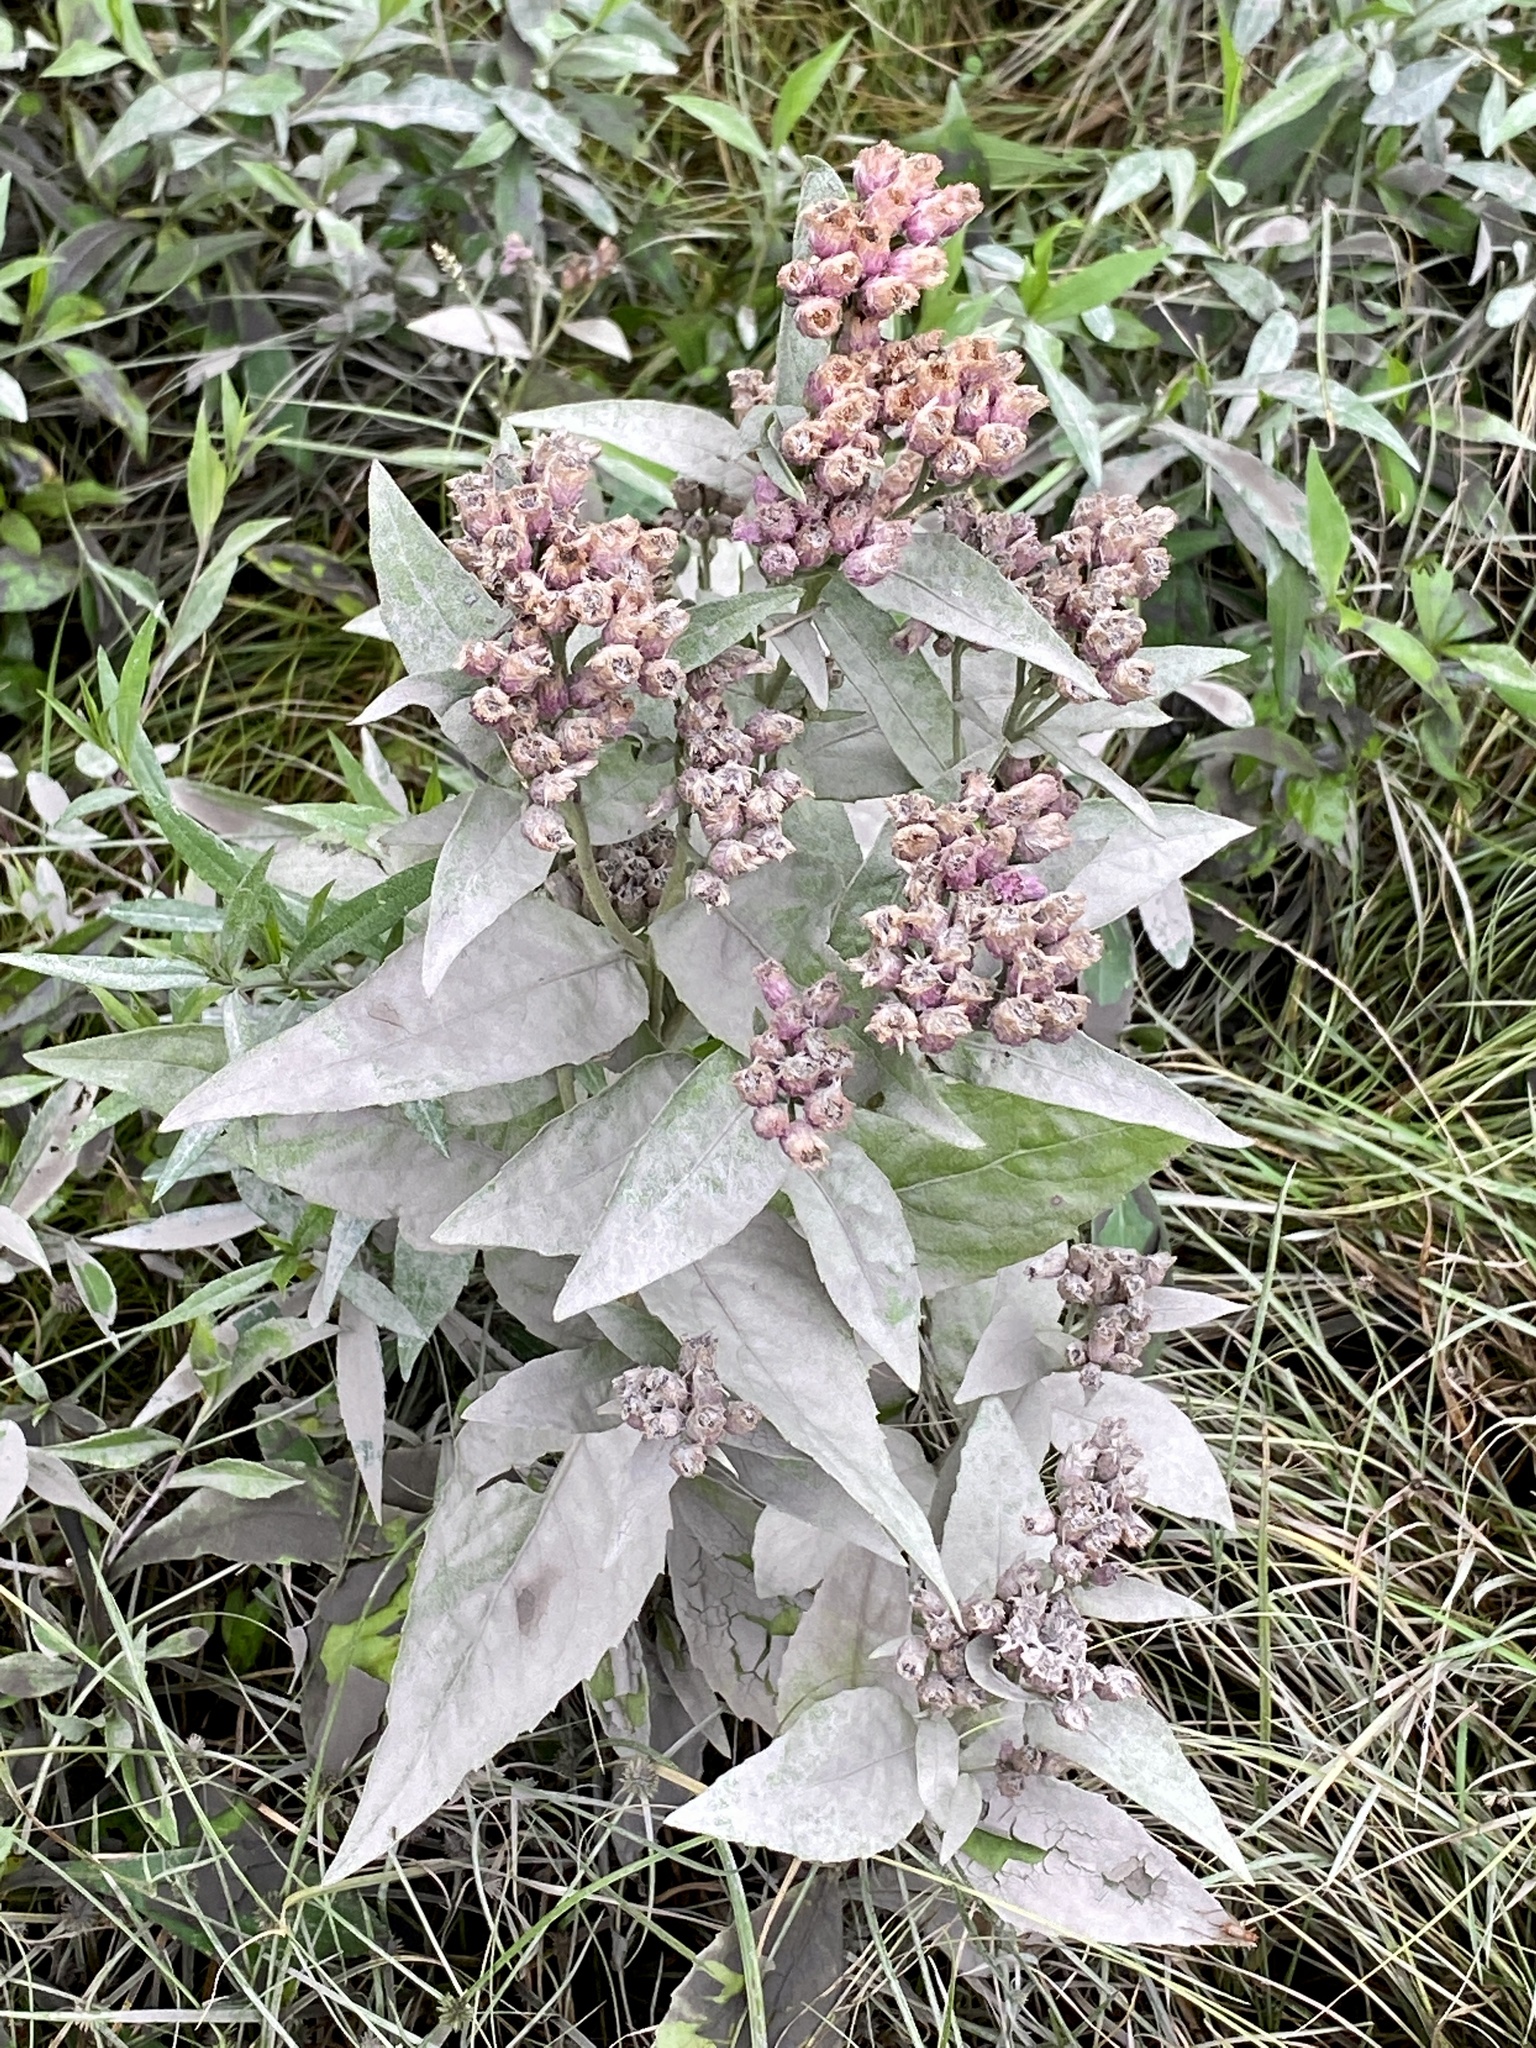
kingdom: Plantae
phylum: Tracheophyta
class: Magnoliopsida
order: Asterales
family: Asteraceae
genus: Pluchea
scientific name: Pluchea odorata
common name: Saltmarsh fleabane
